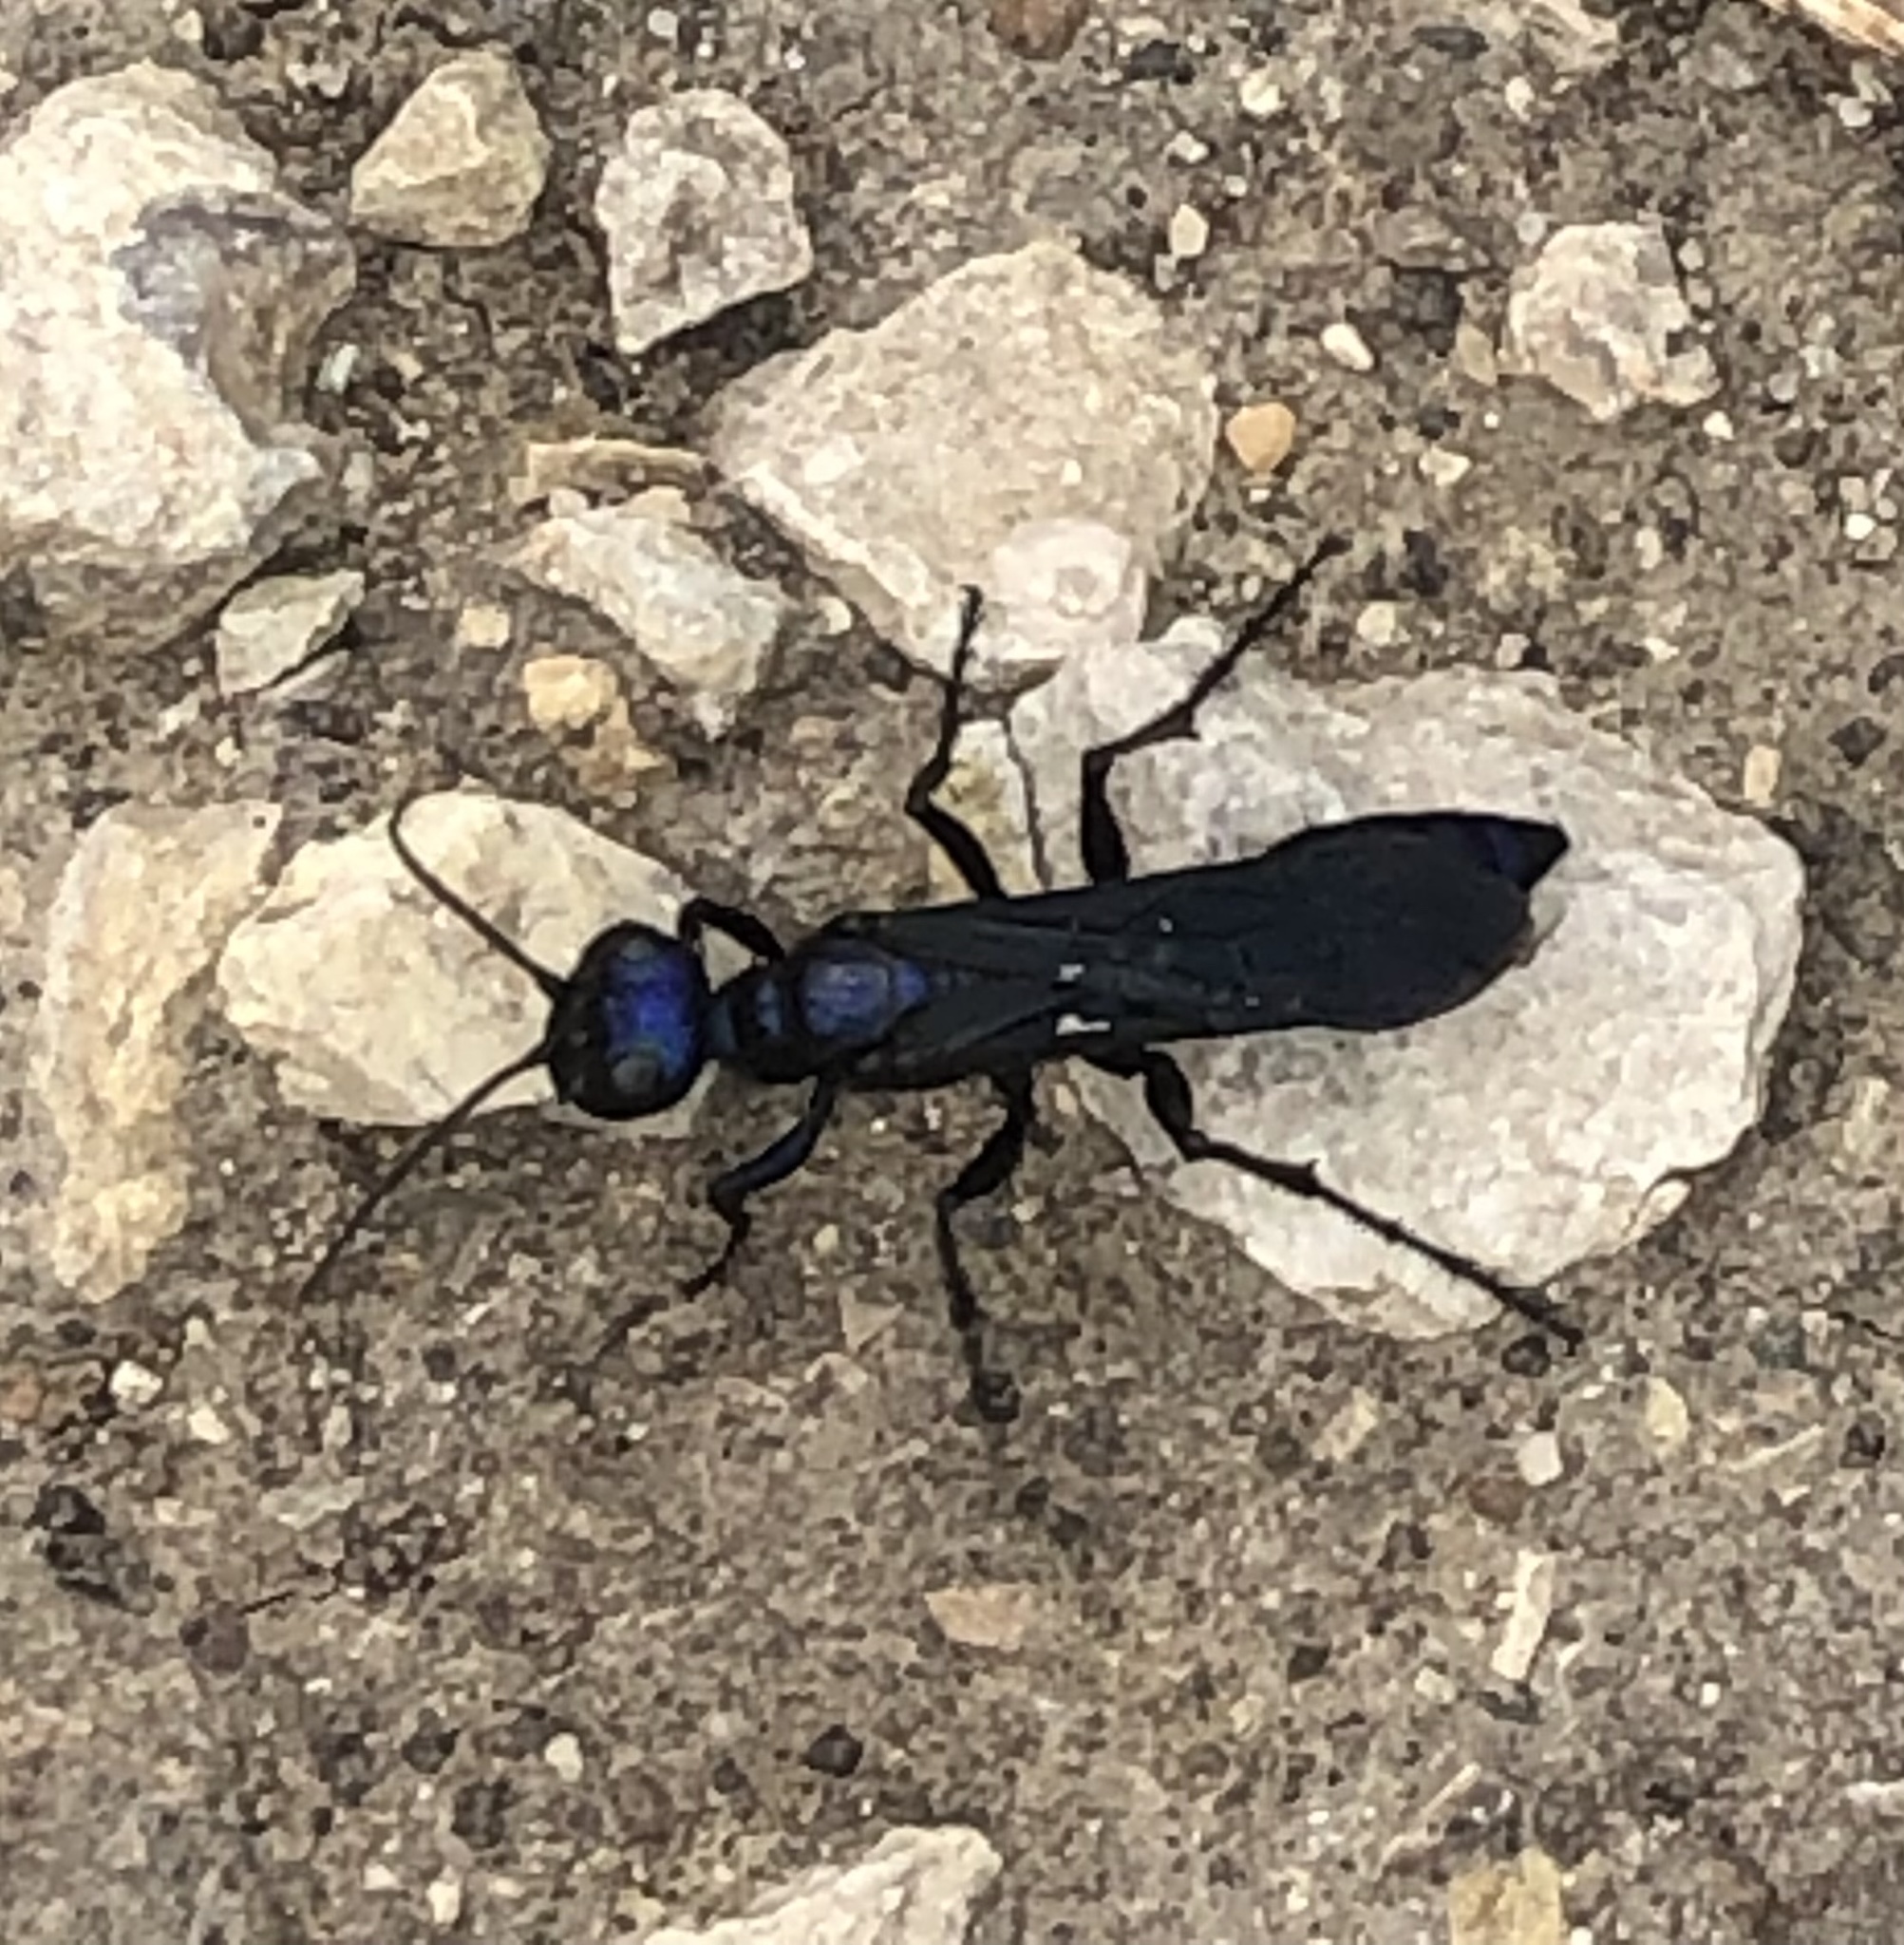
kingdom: Animalia
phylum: Arthropoda
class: Insecta
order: Hymenoptera
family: Sphecidae
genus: Chlorion
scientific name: Chlorion aerarium
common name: Steel-blue cricket hunter
